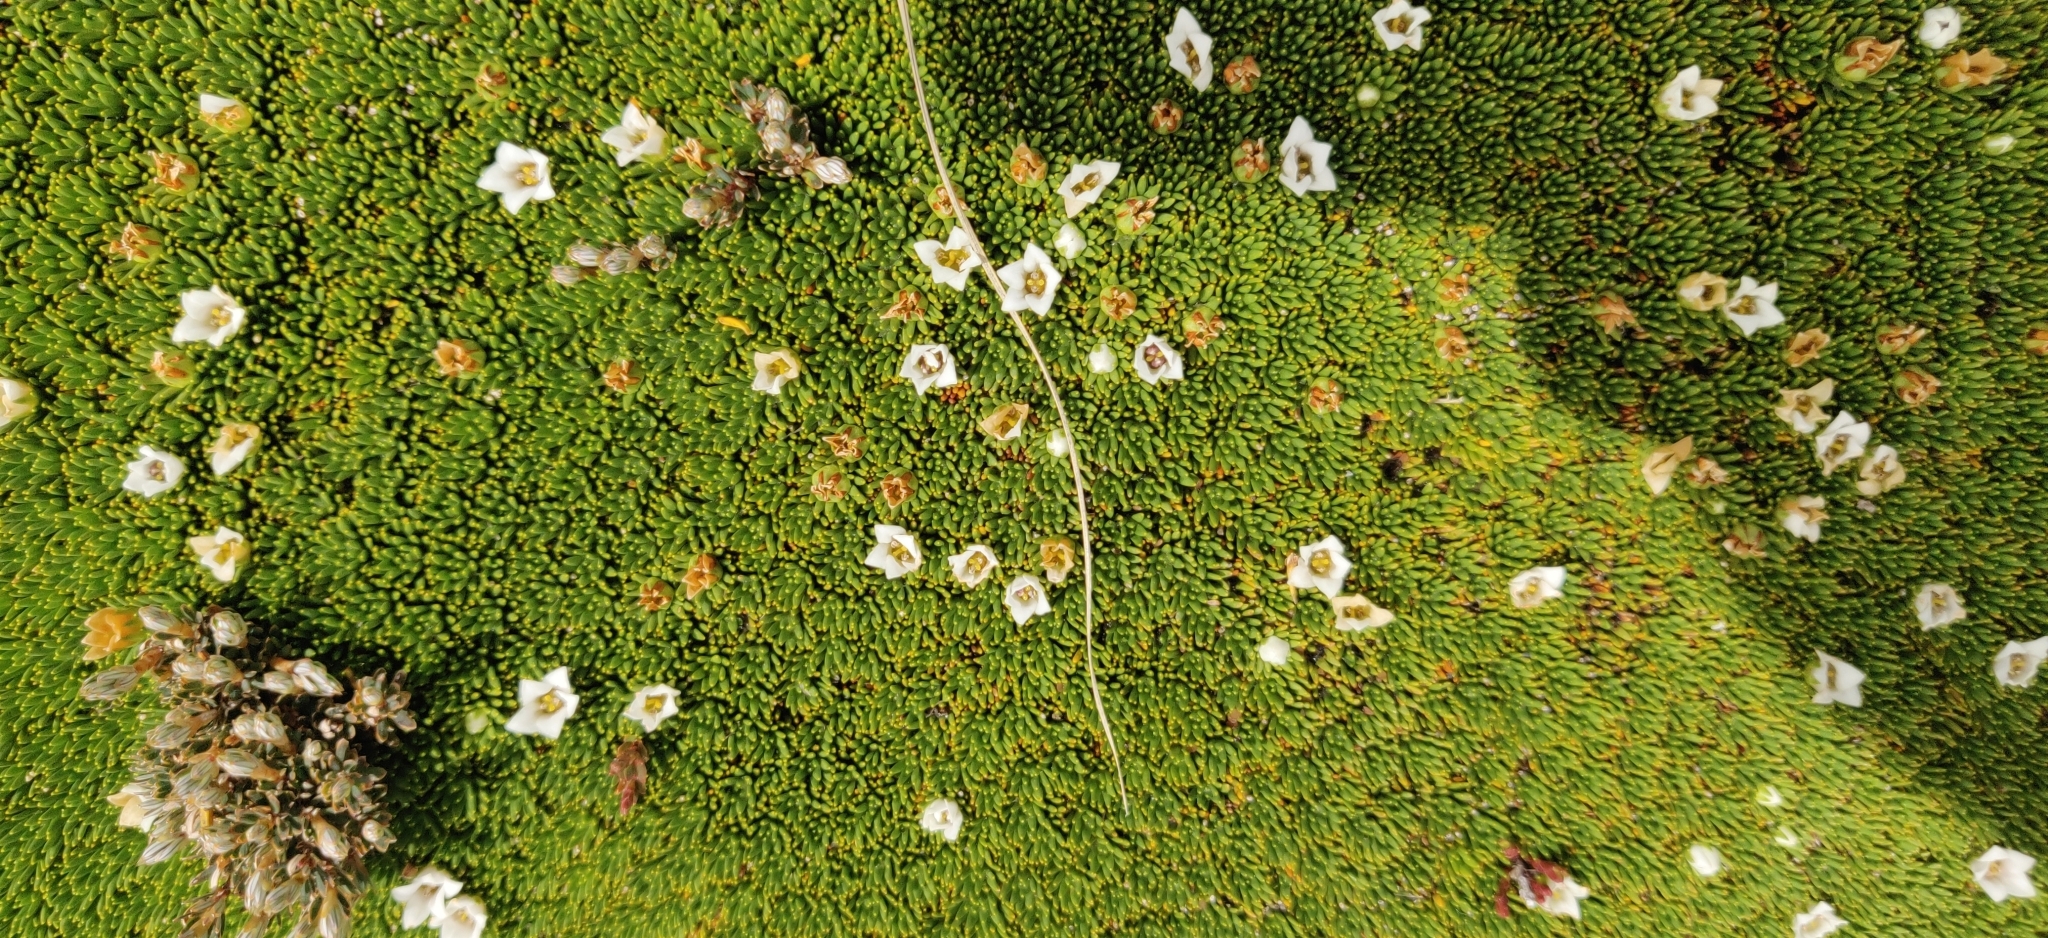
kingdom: Plantae
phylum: Tracheophyta
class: Magnoliopsida
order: Asterales
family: Stylidiaceae
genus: Donatia
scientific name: Donatia novae-zelandiae
